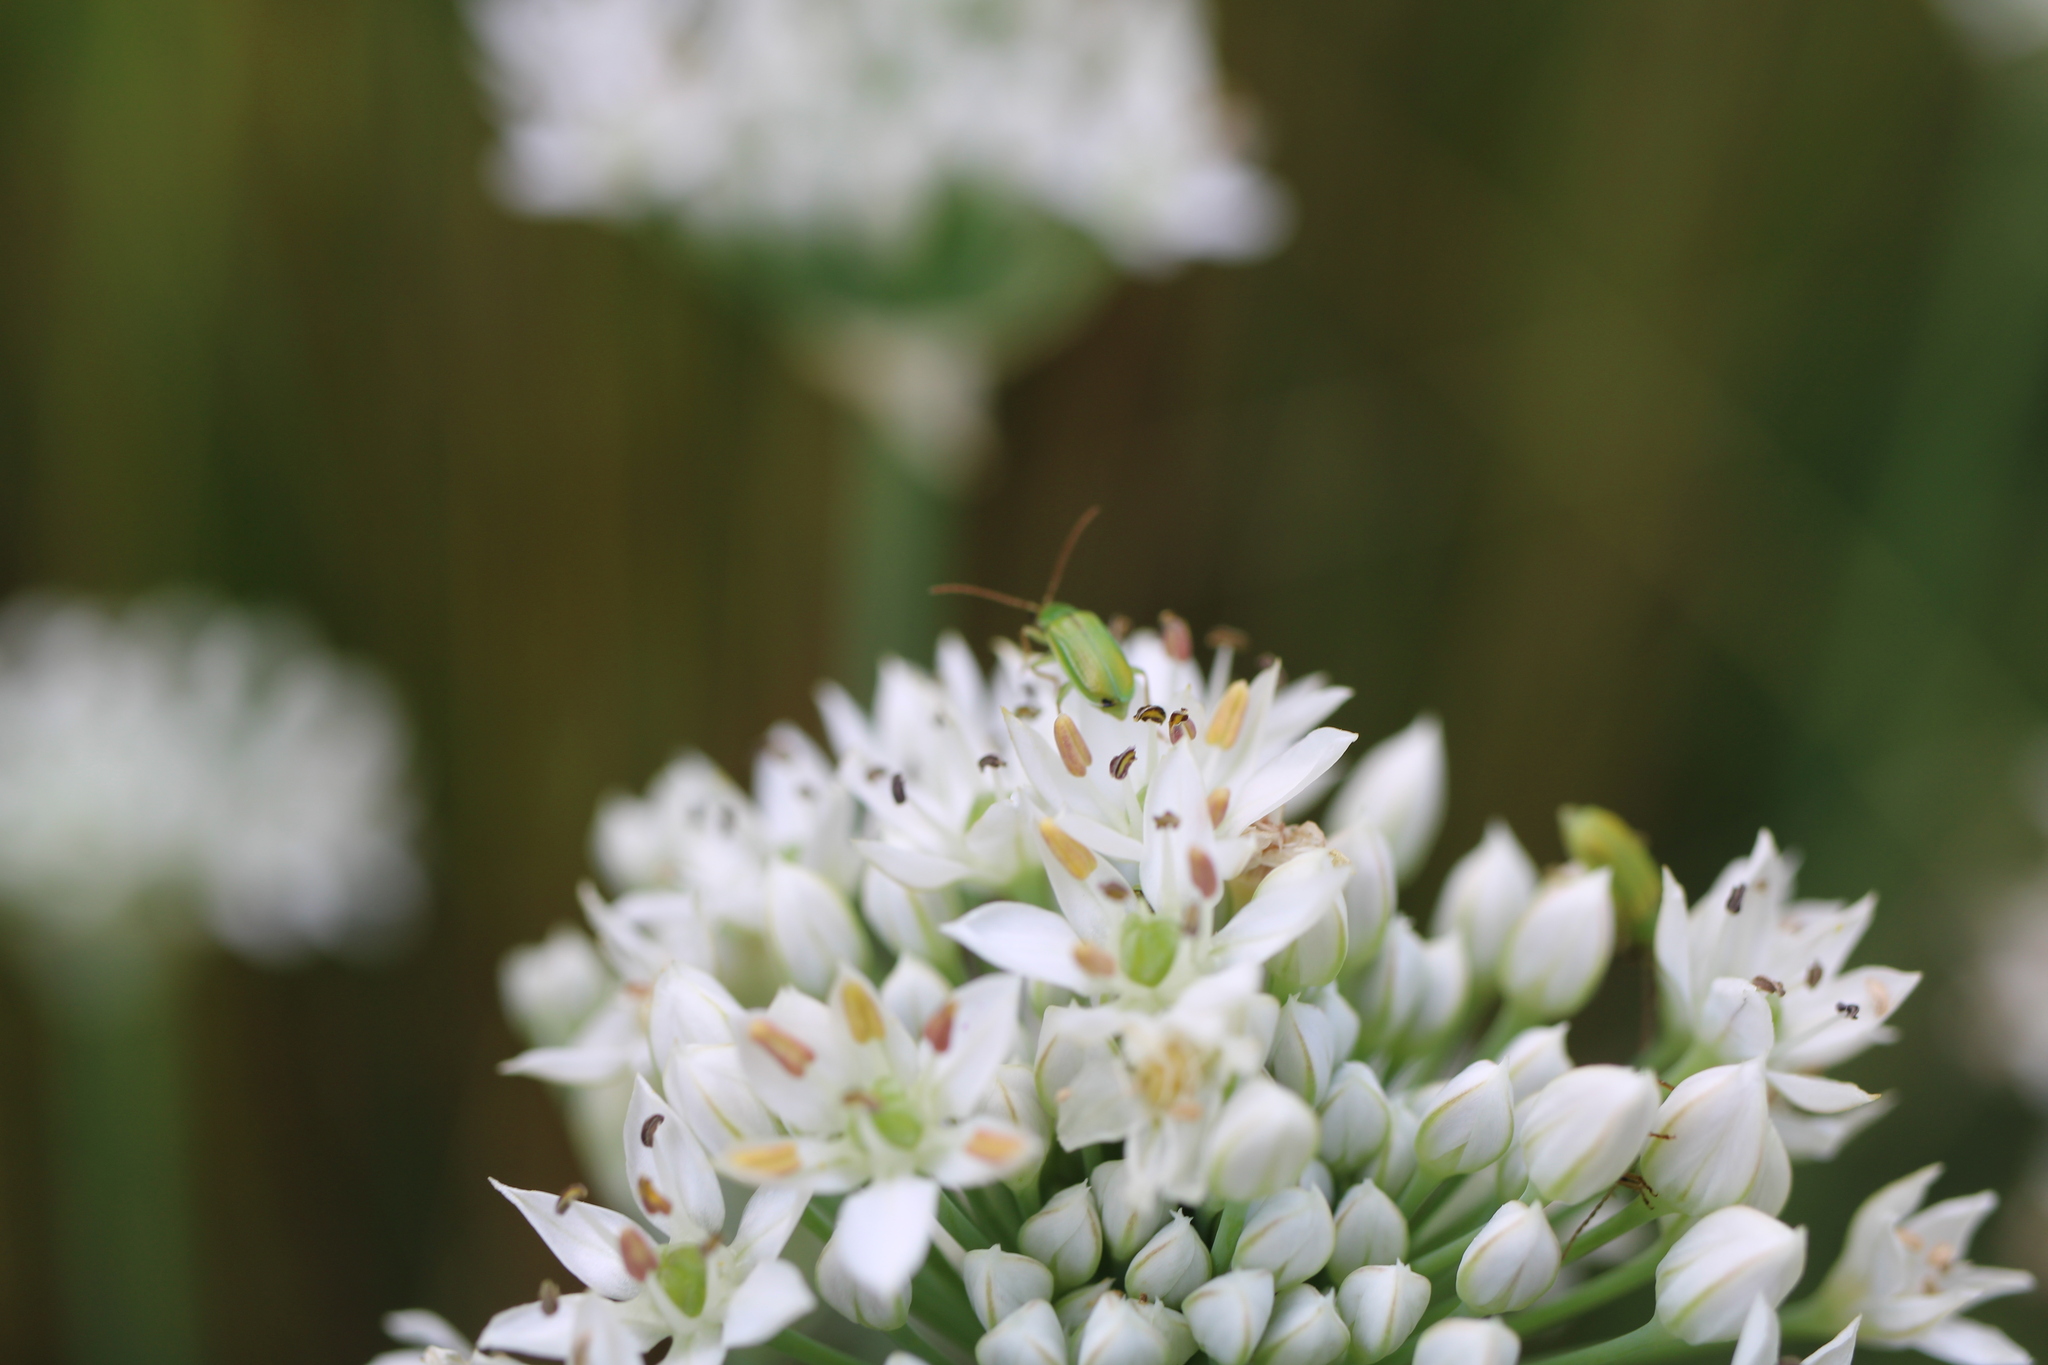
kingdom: Animalia
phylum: Arthropoda
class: Insecta
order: Coleoptera
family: Chrysomelidae
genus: Diabrotica
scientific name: Diabrotica barberi
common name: Northern corn rootworm
